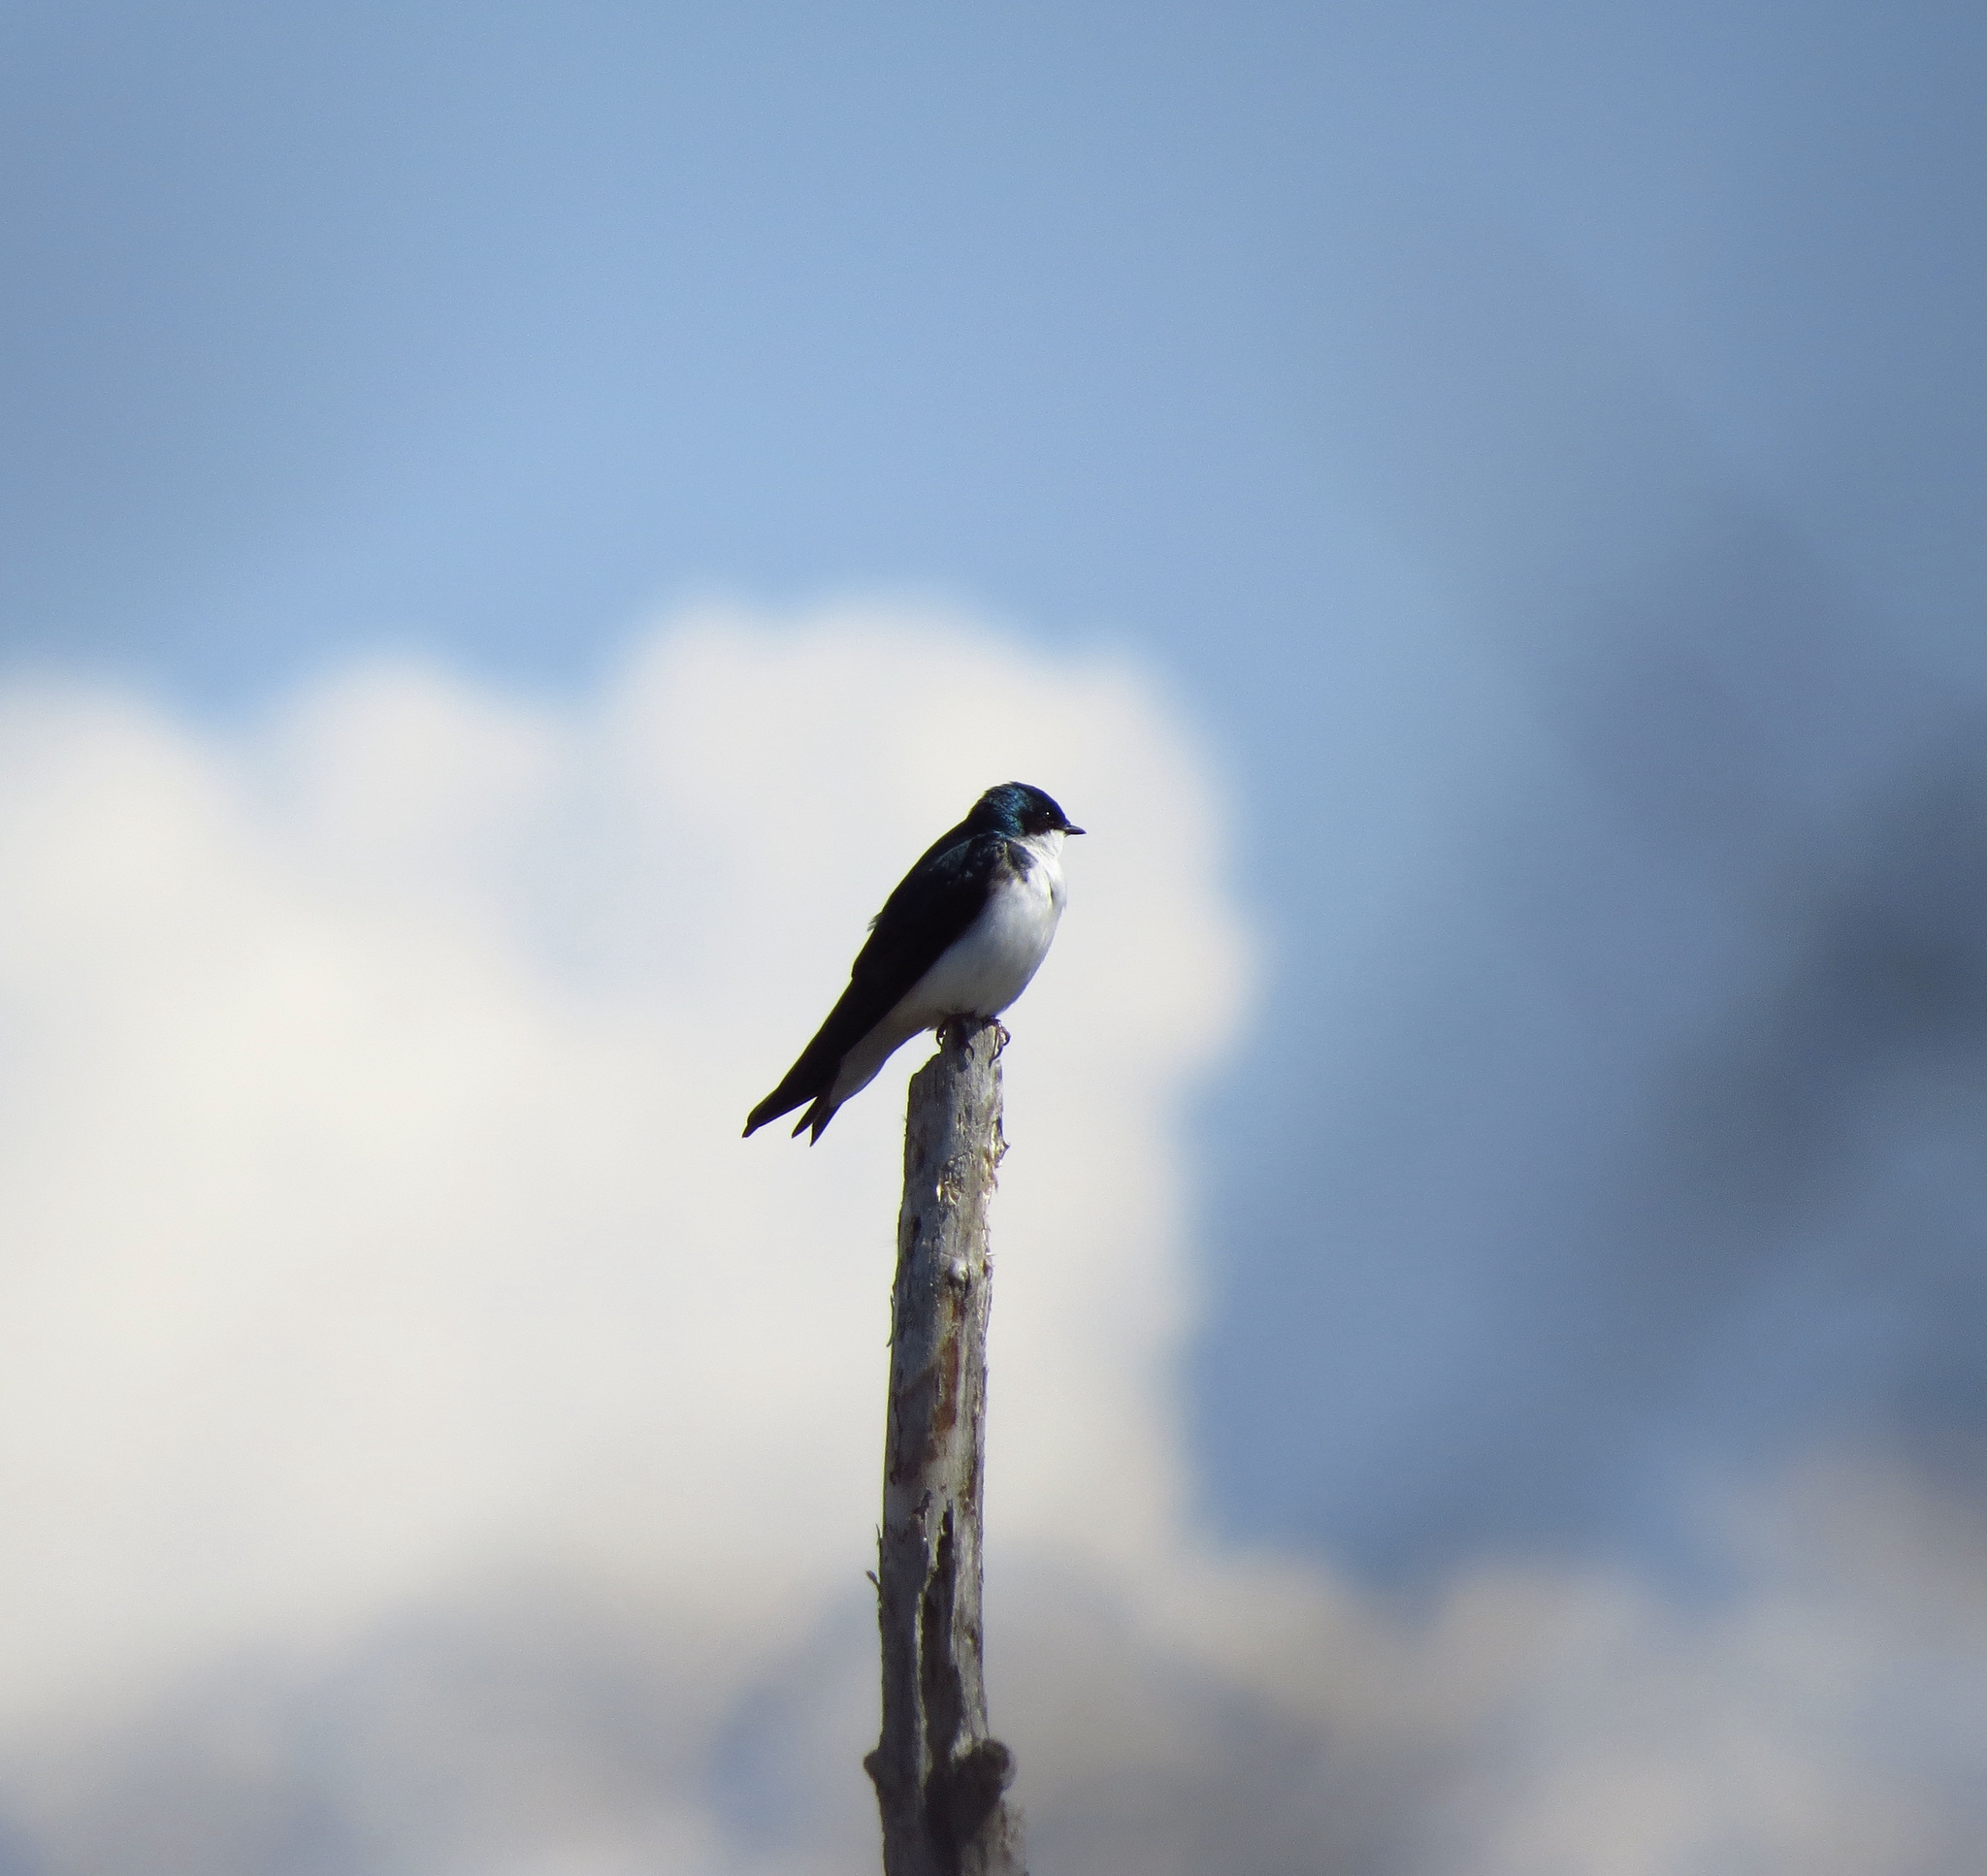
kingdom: Animalia
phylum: Chordata
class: Aves
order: Passeriformes
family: Hirundinidae
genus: Tachycineta
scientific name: Tachycineta bicolor
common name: Tree swallow
